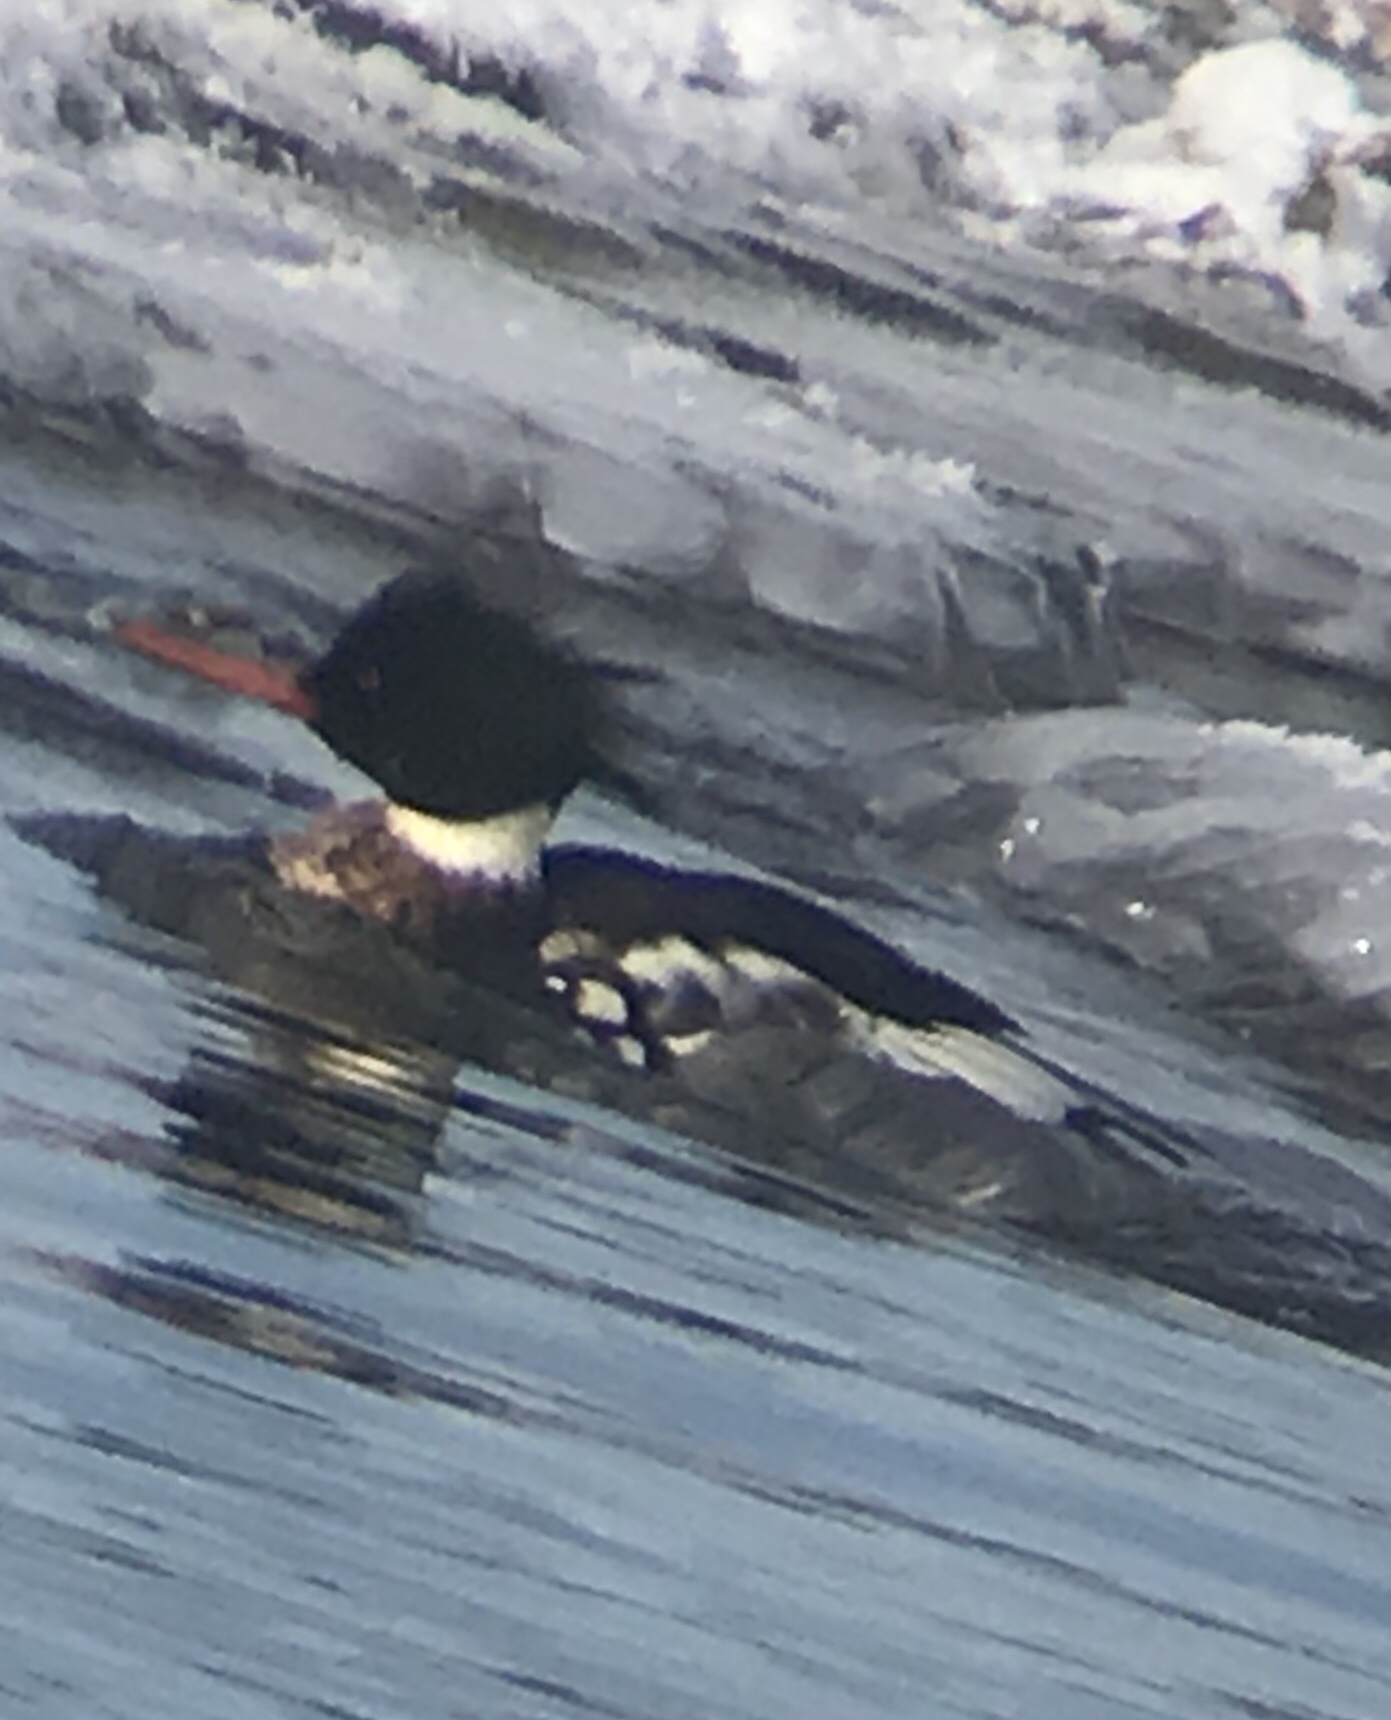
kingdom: Animalia
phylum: Chordata
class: Aves
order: Anseriformes
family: Anatidae
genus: Mergus
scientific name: Mergus serrator
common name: Red-breasted merganser
